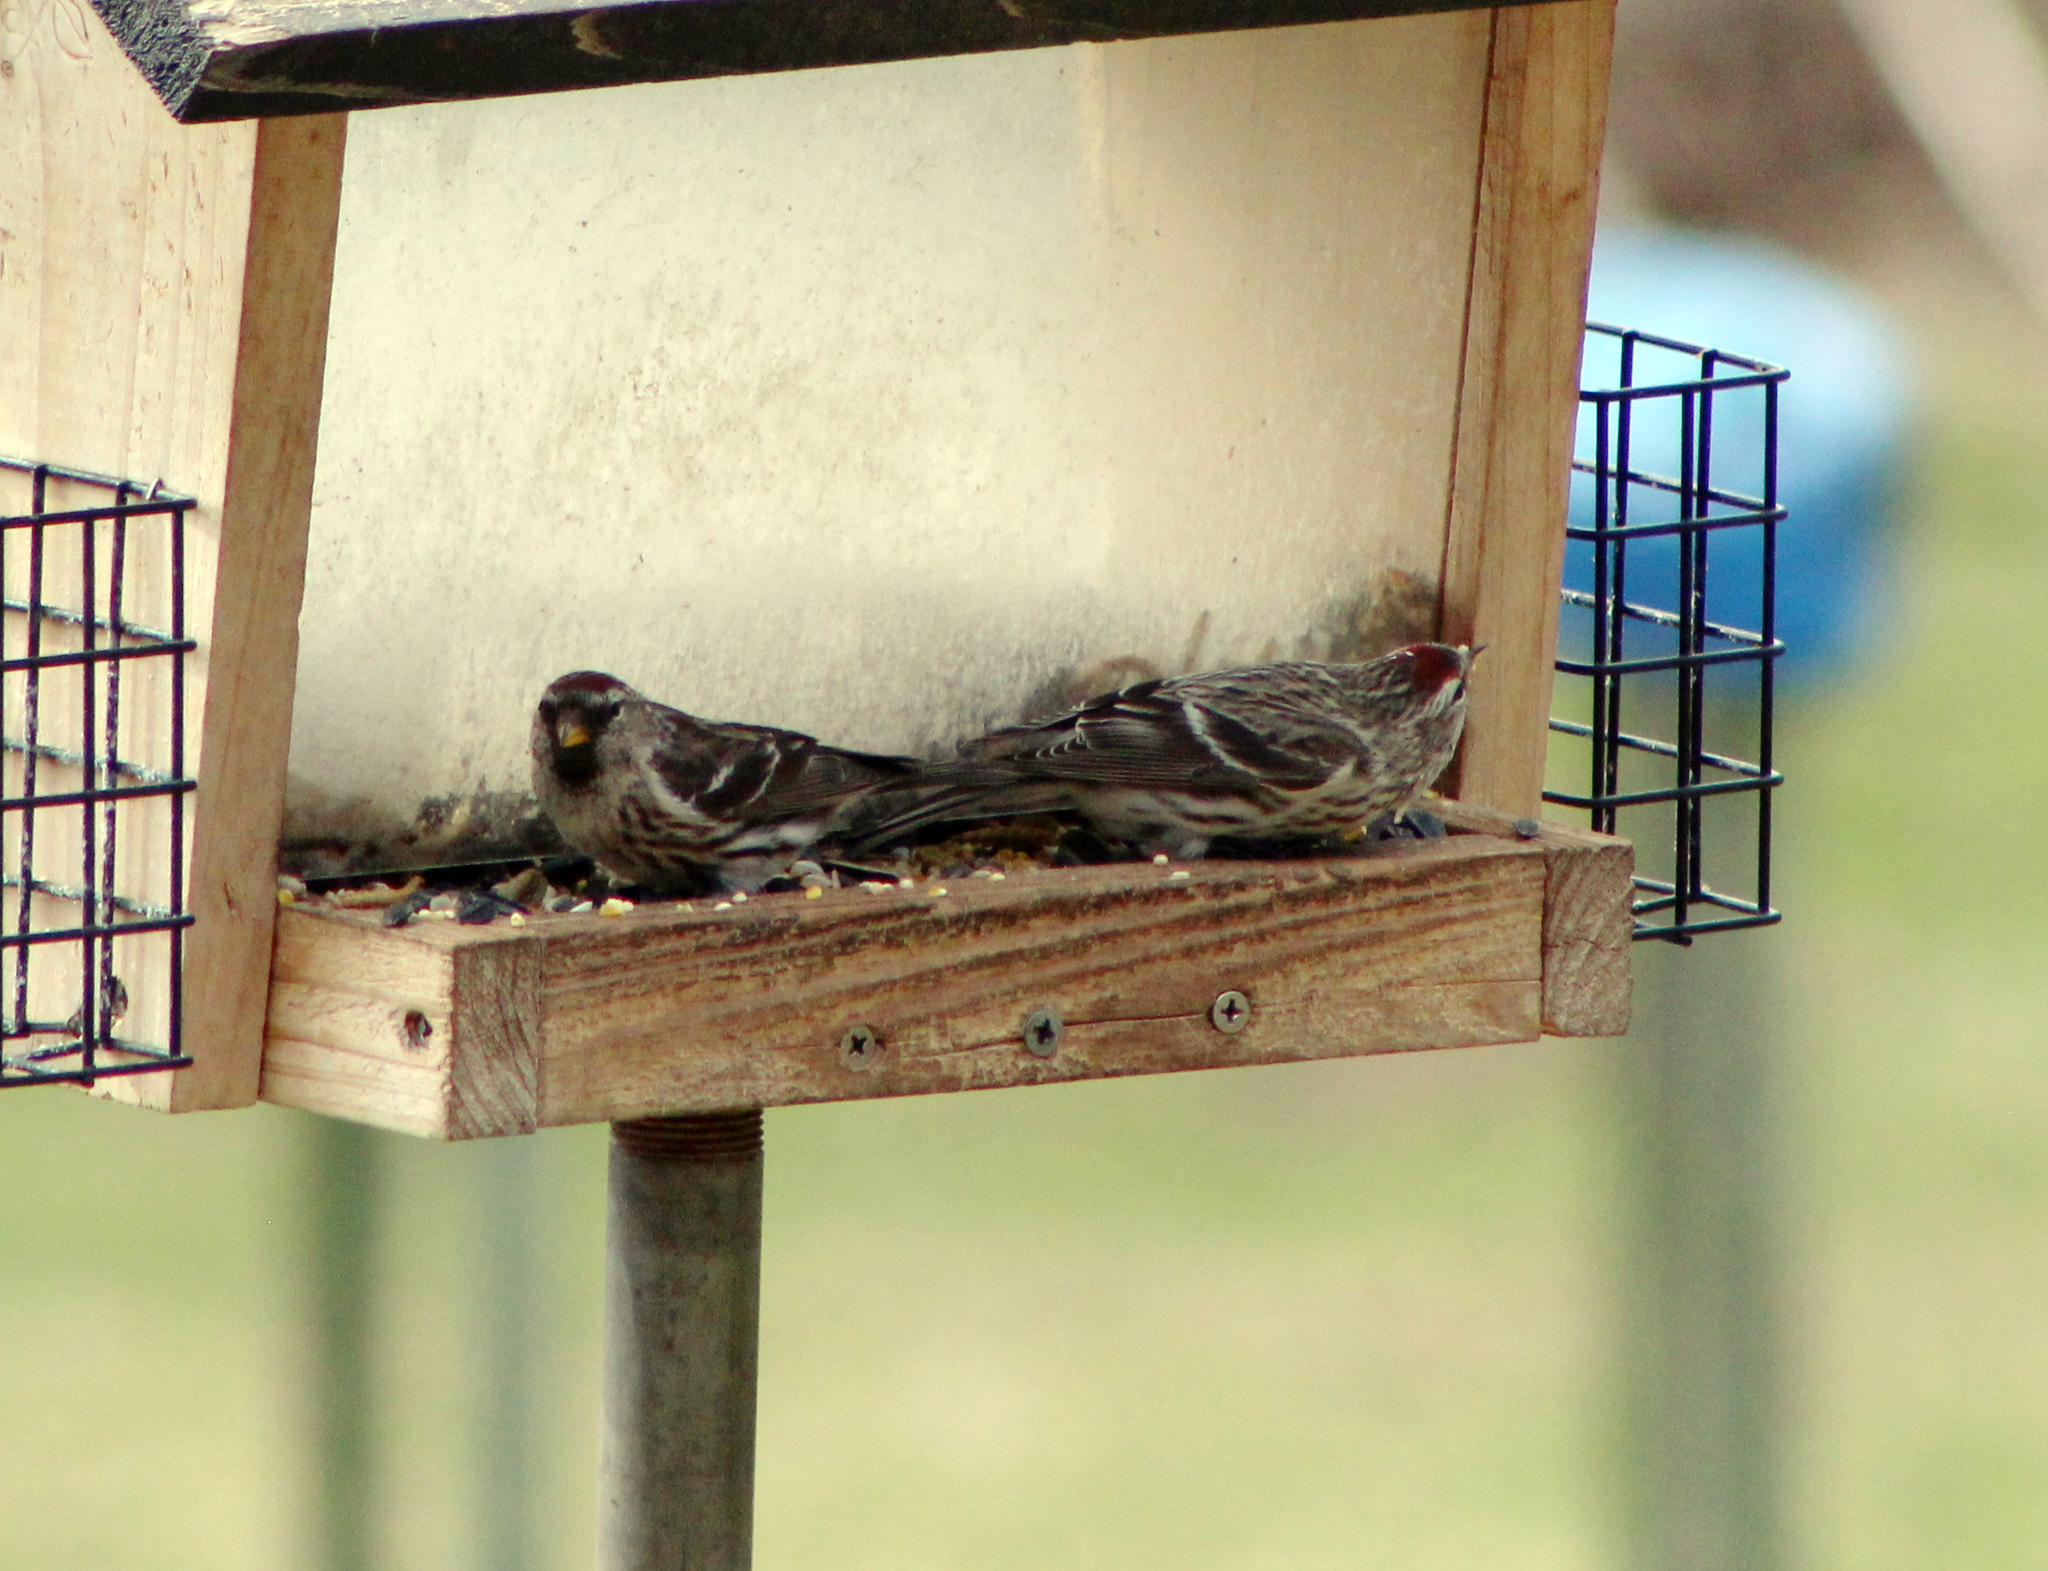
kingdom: Animalia
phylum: Chordata
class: Aves
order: Passeriformes
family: Fringillidae
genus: Acanthis
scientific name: Acanthis flammea
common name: Common redpoll
